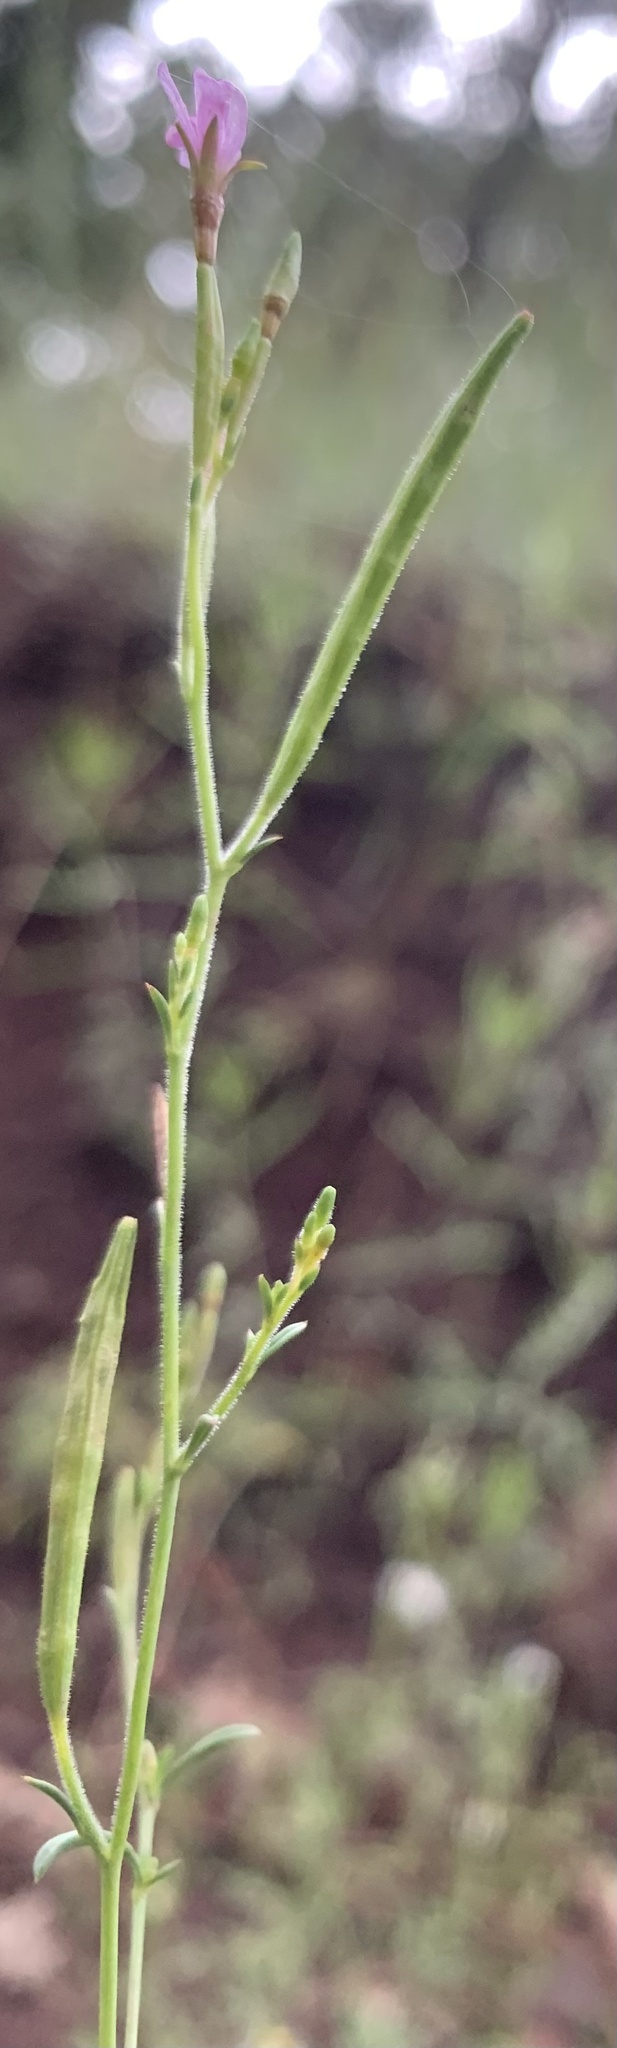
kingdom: Plantae
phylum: Tracheophyta
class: Magnoliopsida
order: Myrtales
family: Onagraceae
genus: Epilobium
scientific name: Epilobium brachycarpum
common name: Annual willowherb
